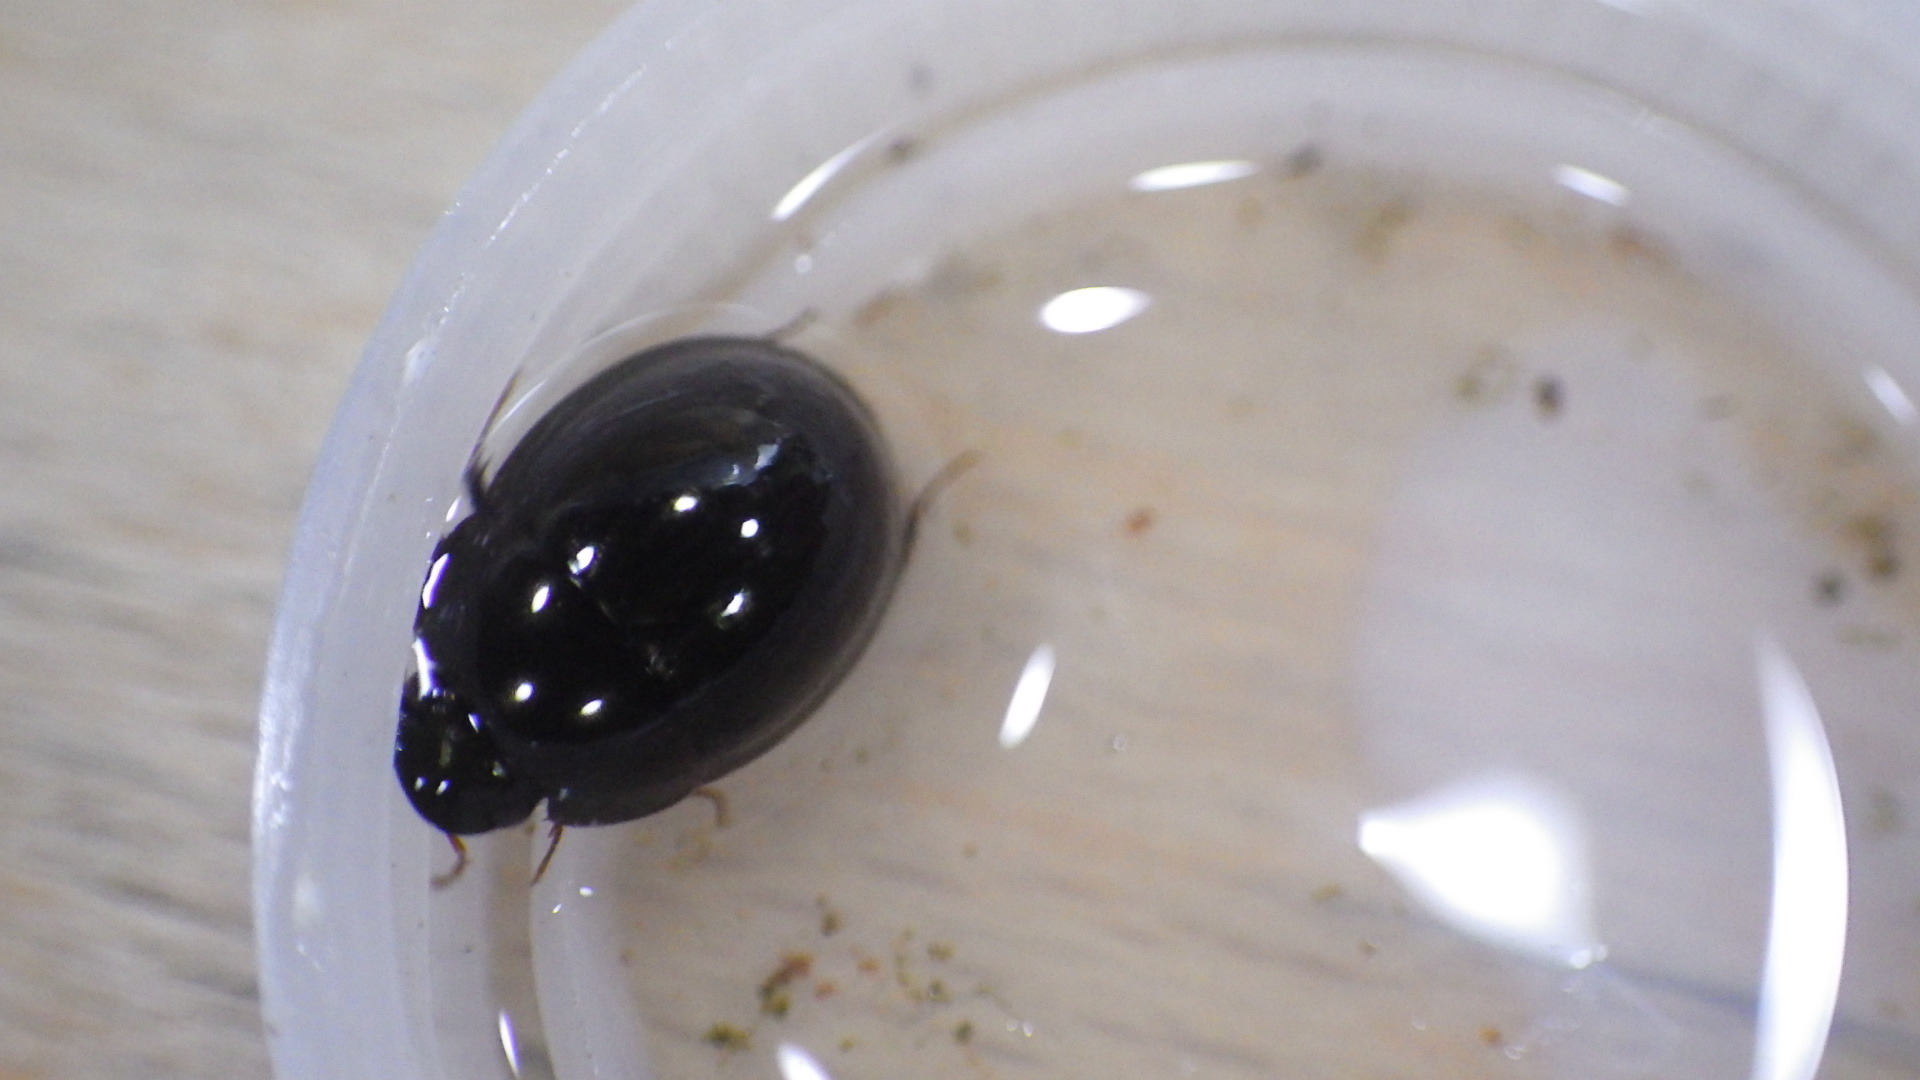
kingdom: Animalia
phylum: Arthropoda
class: Insecta
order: Coleoptera
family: Hydrophilidae
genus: Limnohydrobius
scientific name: Limnohydrobius
